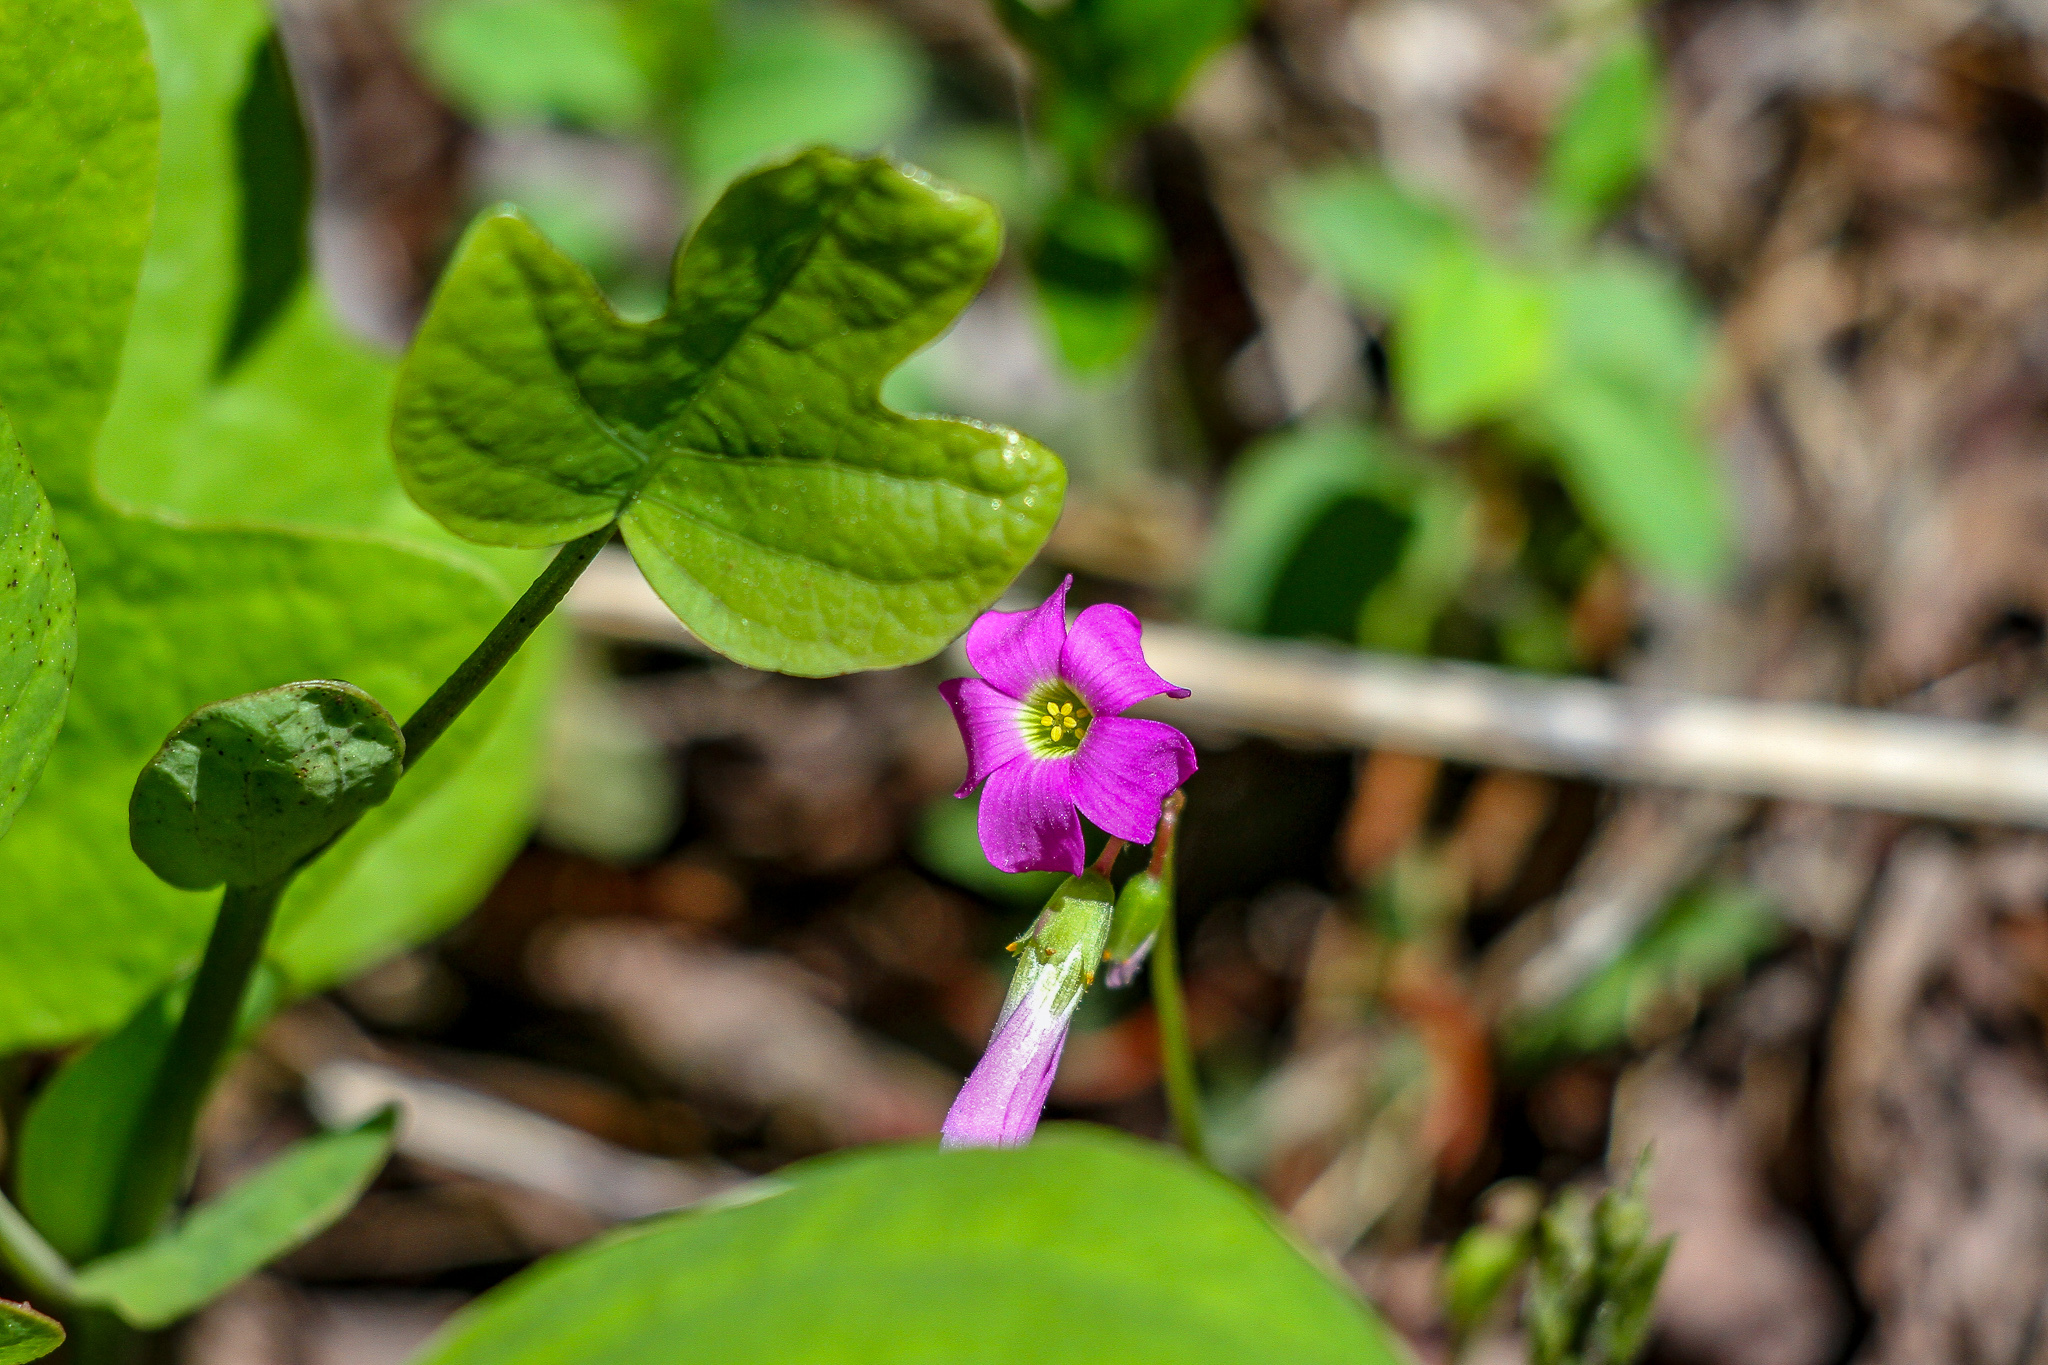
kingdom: Plantae
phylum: Tracheophyta
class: Magnoliopsida
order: Oxalidales
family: Oxalidaceae
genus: Oxalis
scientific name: Oxalis violacea
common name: Violet wood-sorrel
